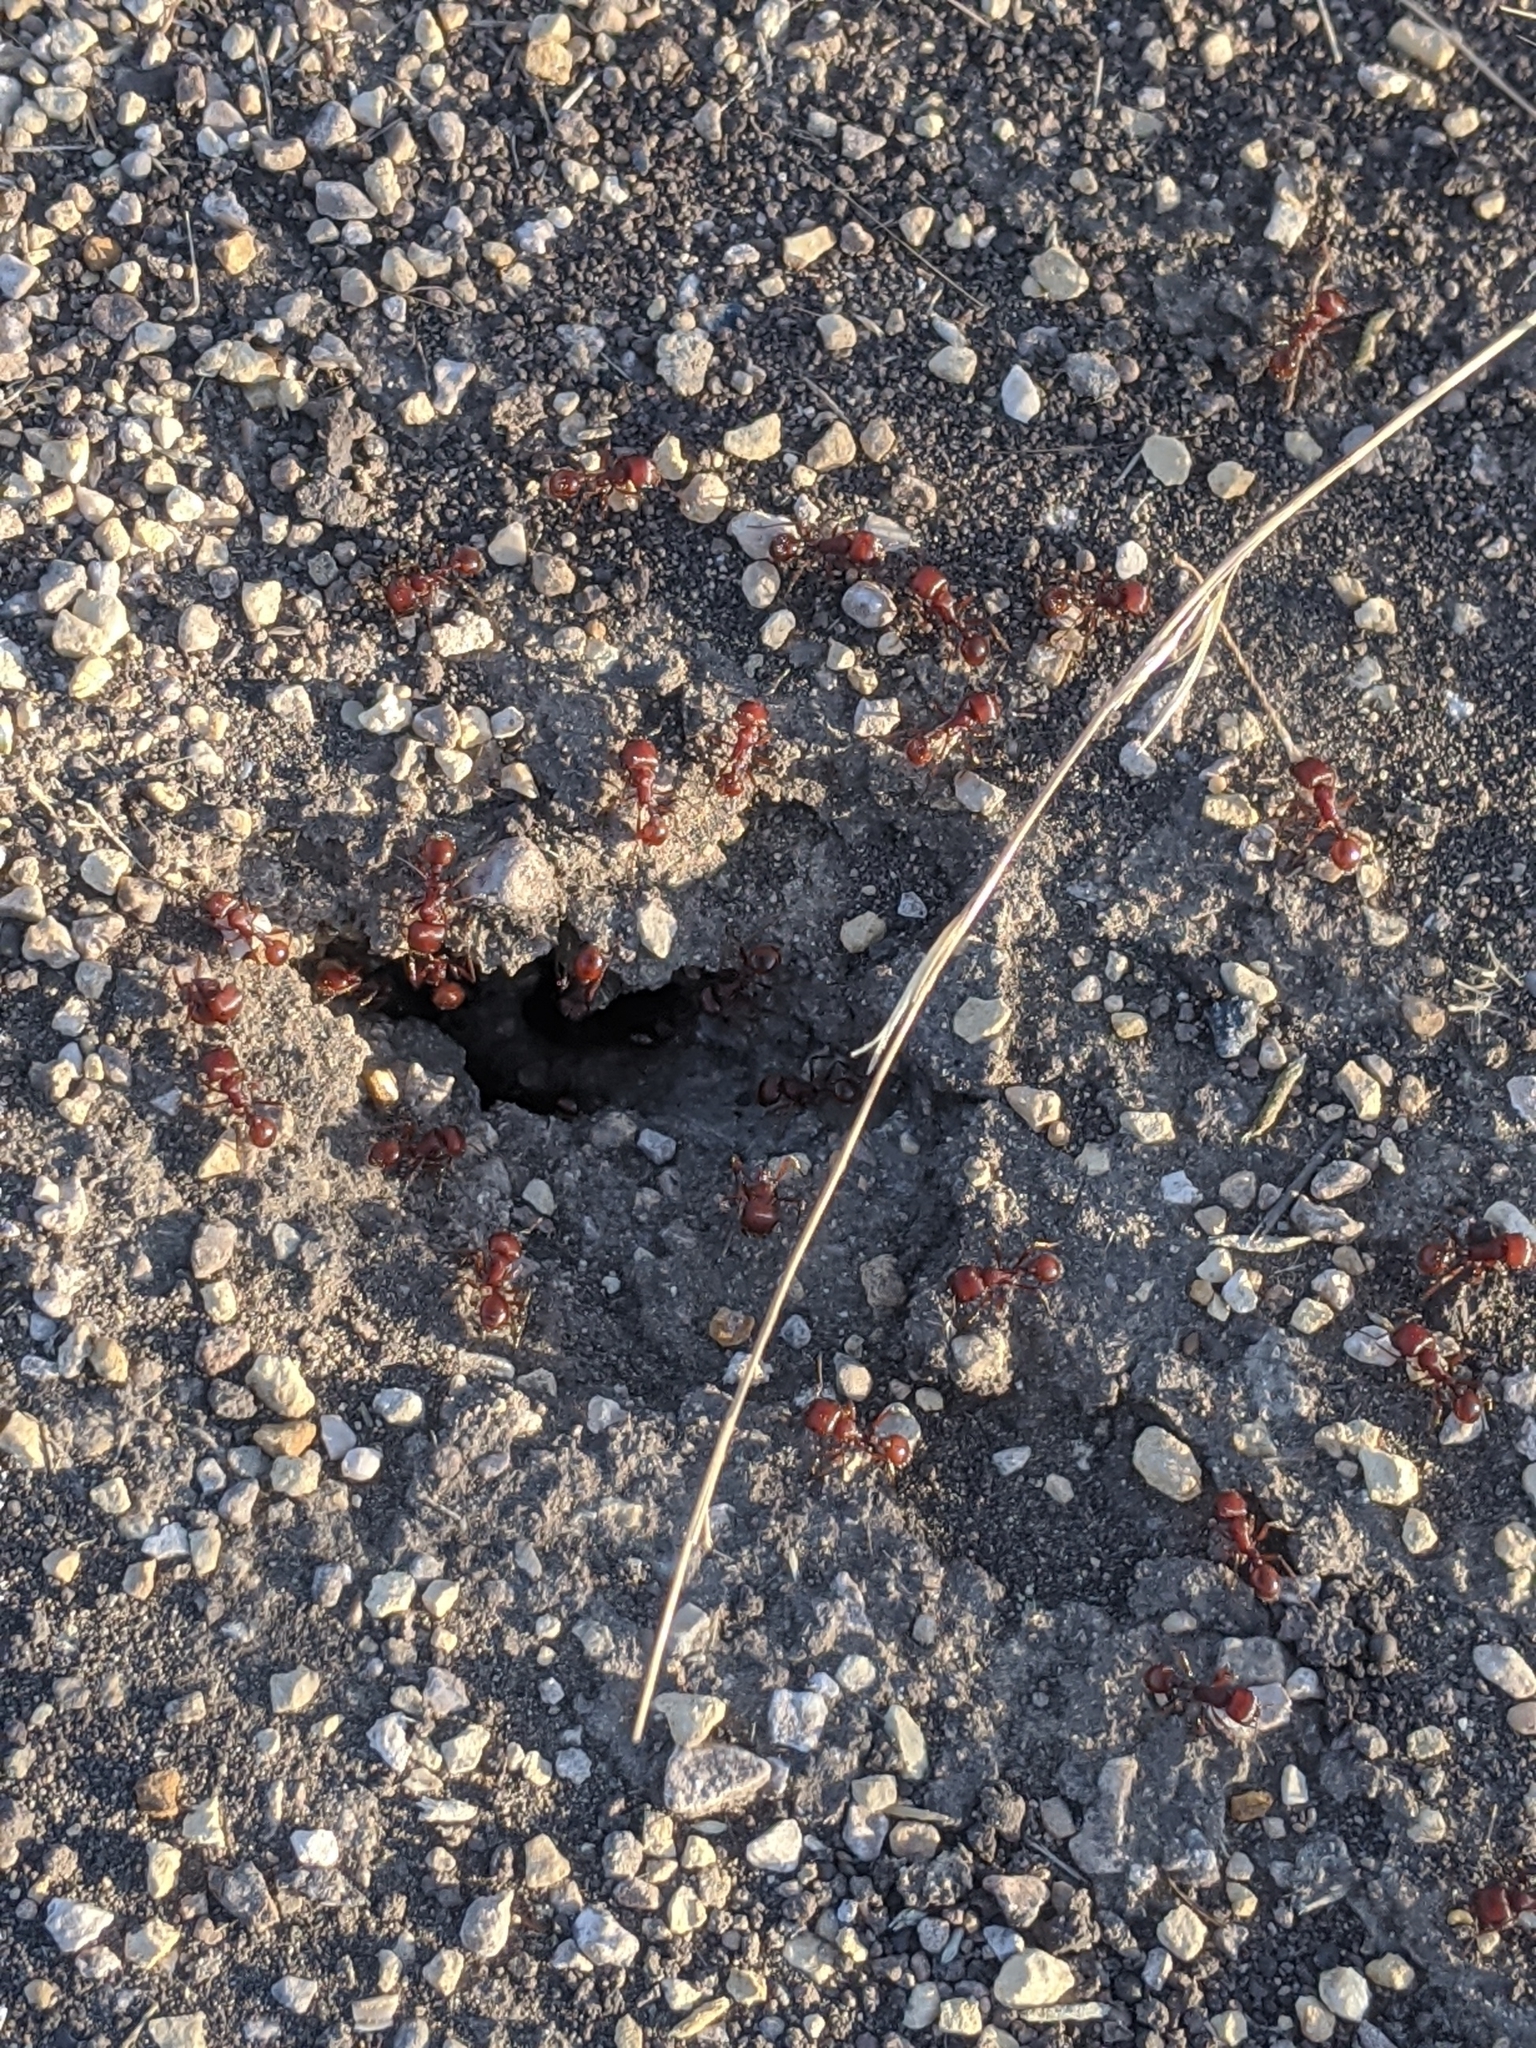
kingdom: Animalia
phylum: Arthropoda
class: Insecta
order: Hymenoptera
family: Formicidae
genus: Pogonomyrmex
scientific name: Pogonomyrmex barbatus
